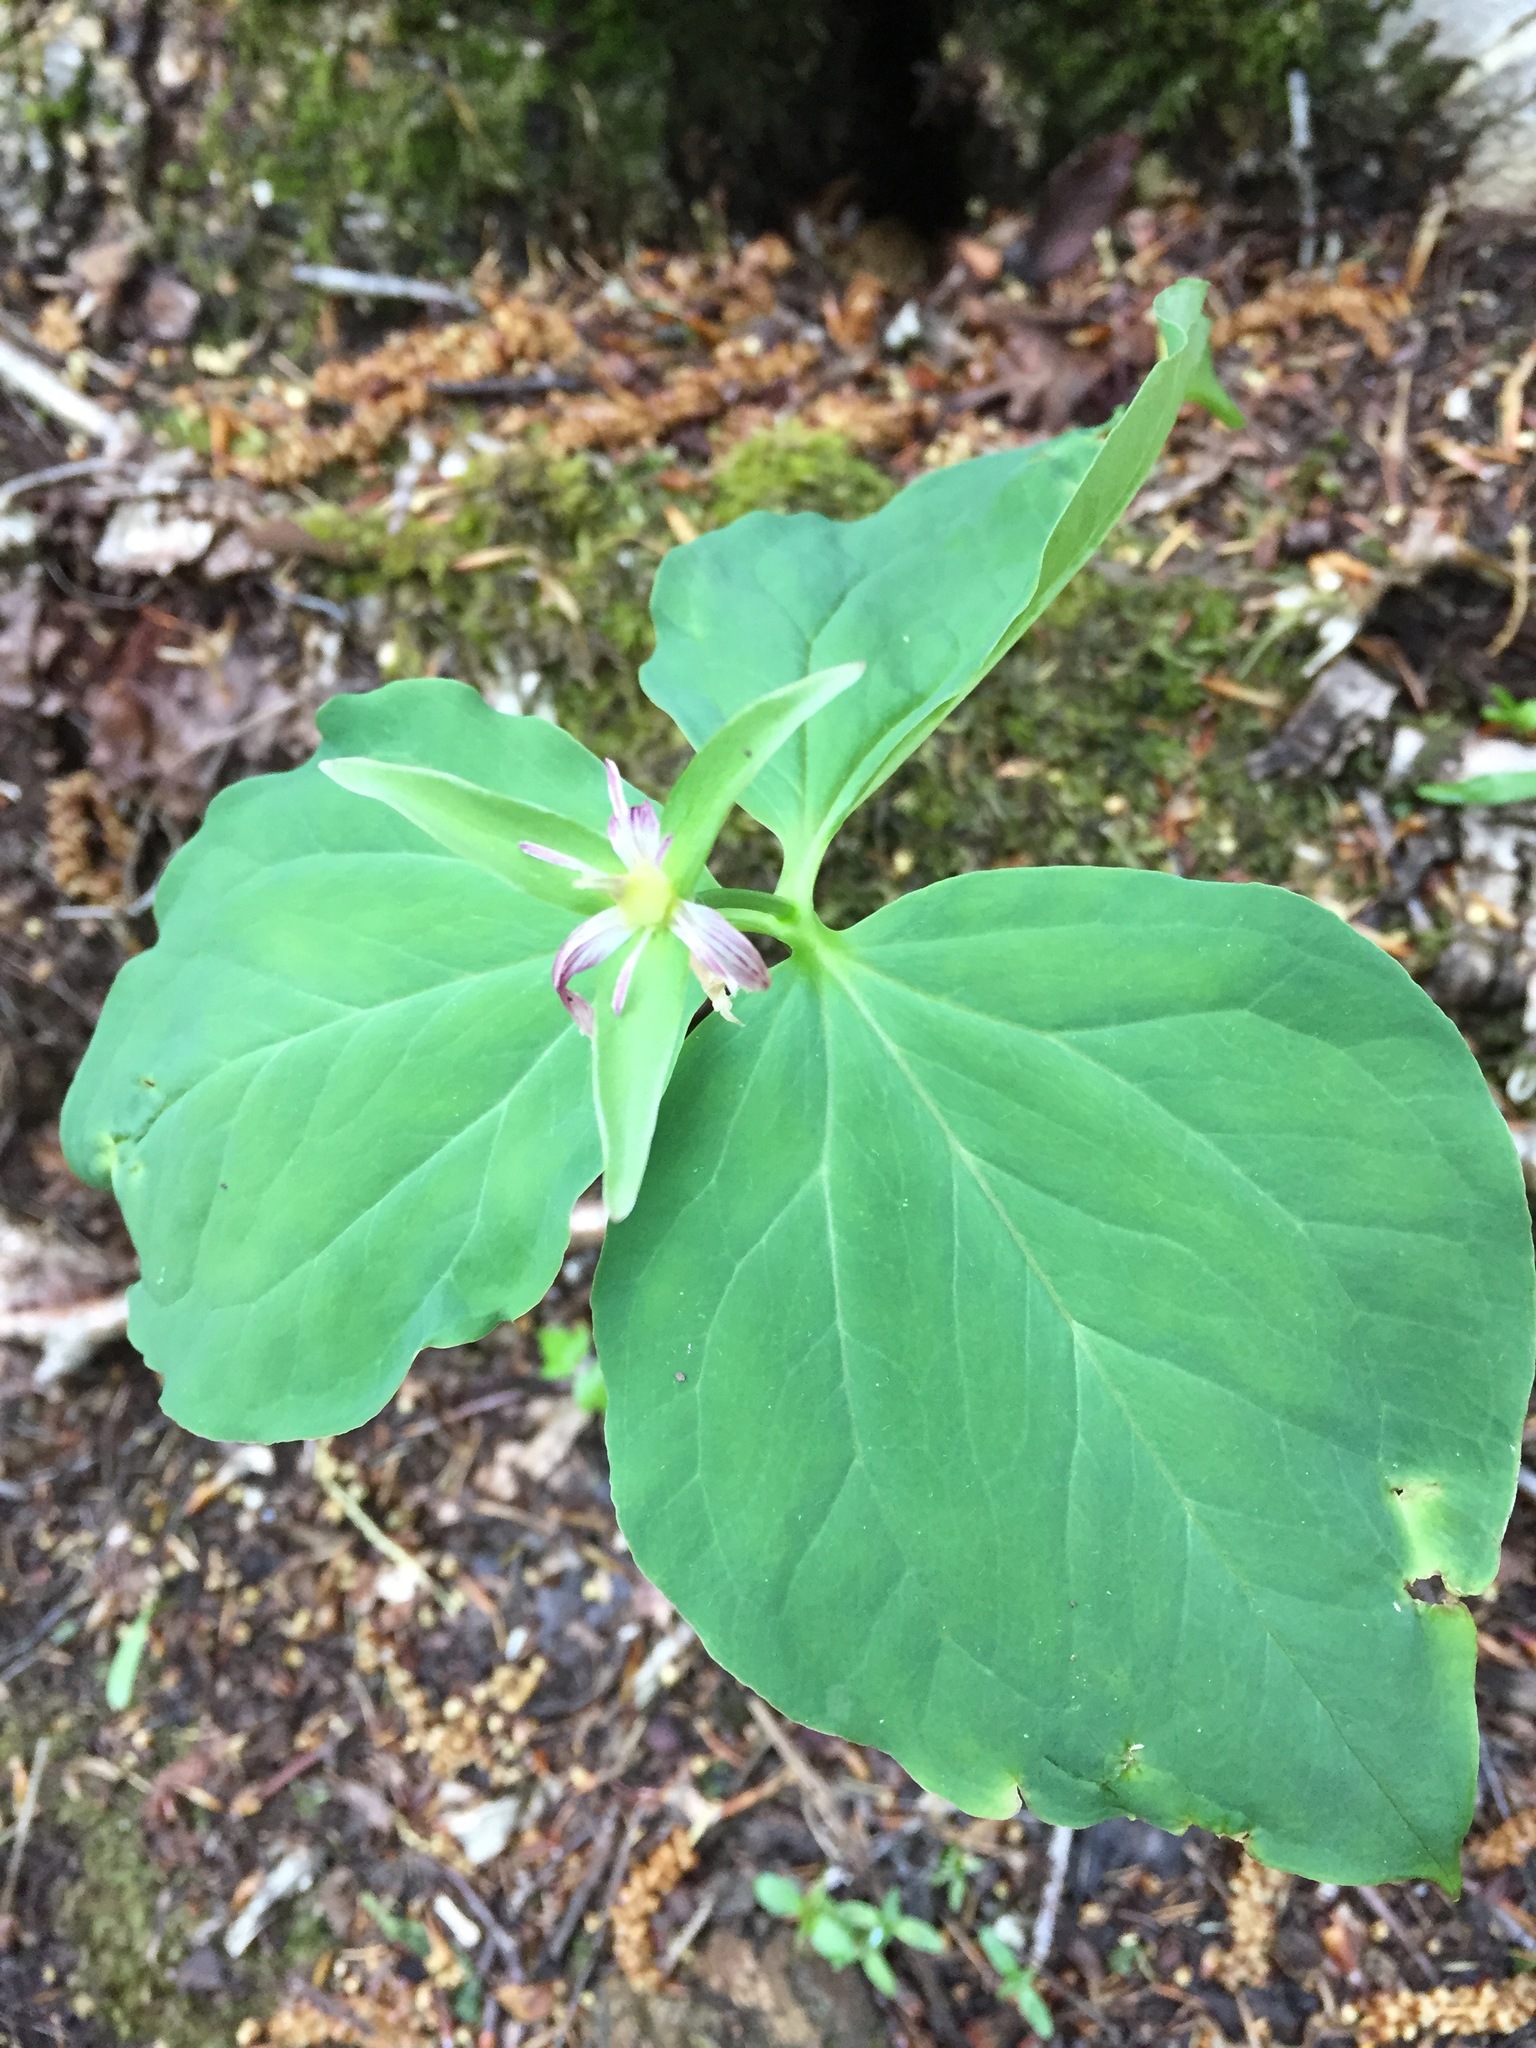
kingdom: Plantae
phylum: Tracheophyta
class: Liliopsida
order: Liliales
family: Melanthiaceae
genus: Trillium
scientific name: Trillium undulatum
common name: Paint trillium
